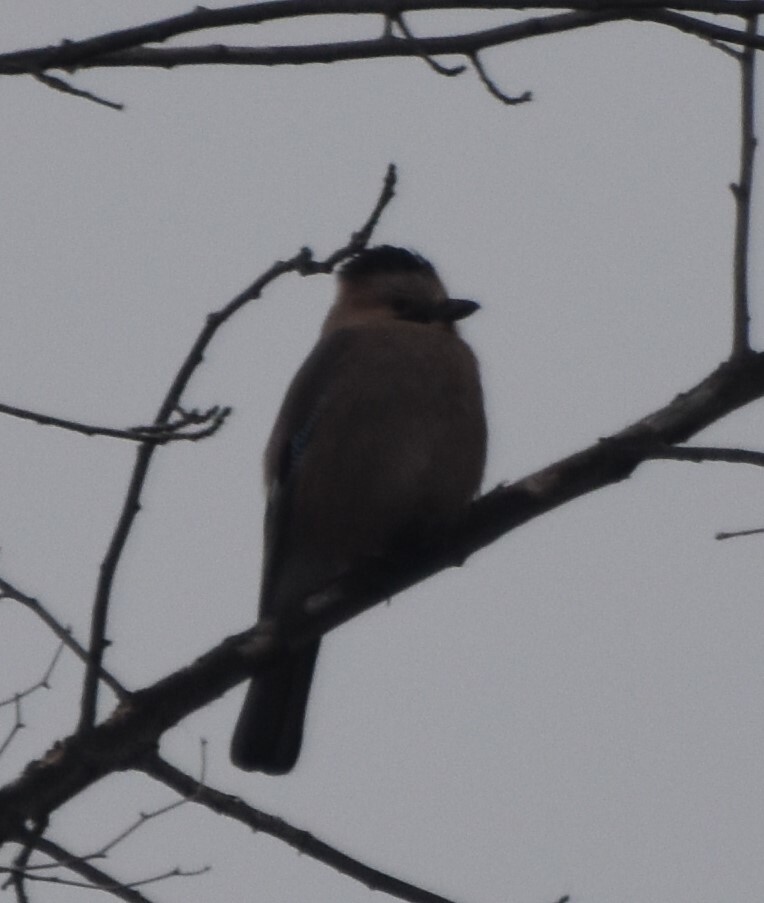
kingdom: Animalia
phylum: Chordata
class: Aves
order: Passeriformes
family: Corvidae
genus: Garrulus
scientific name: Garrulus glandarius
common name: Eurasian jay
